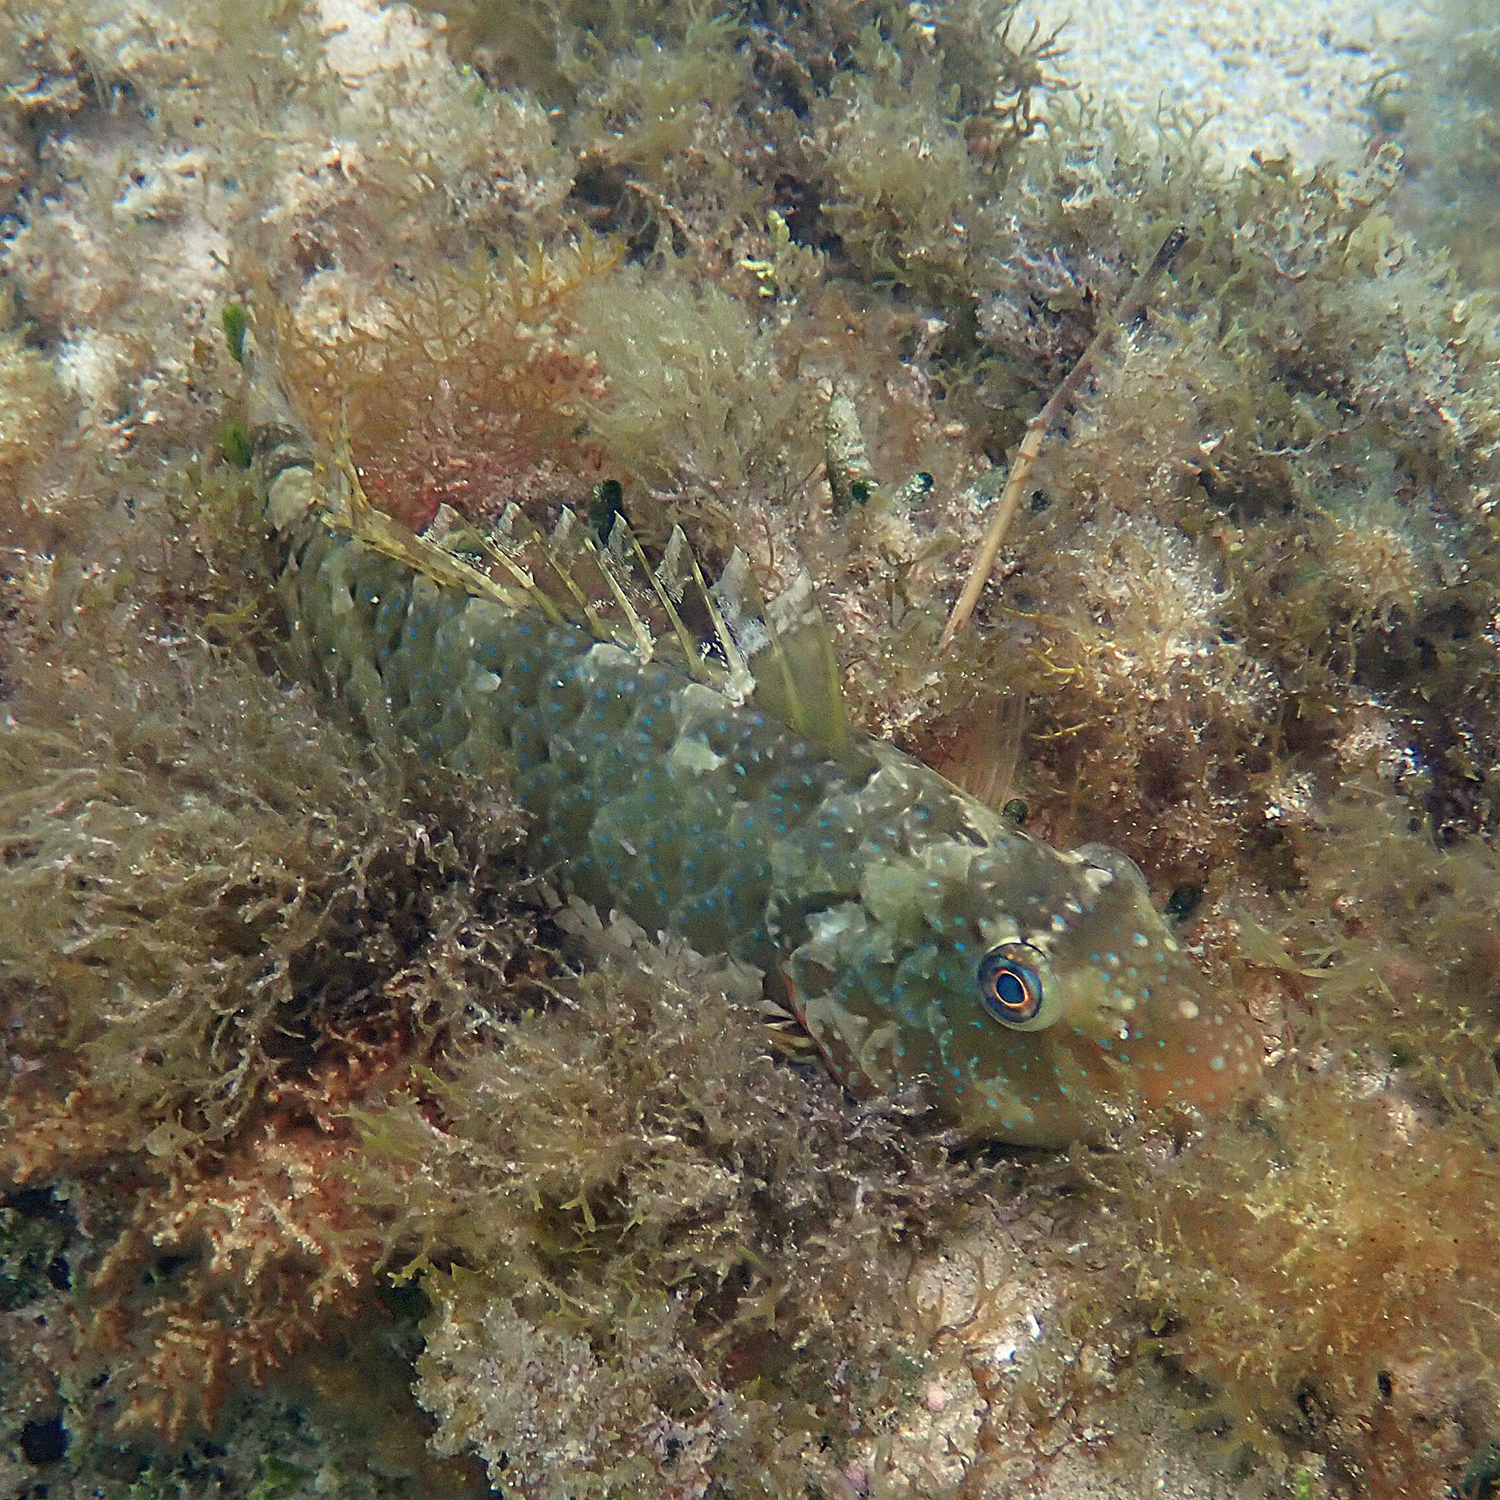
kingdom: Animalia
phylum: Chordata
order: Perciformes
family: Scaridae
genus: Leptoscarus
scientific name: Leptoscarus vaigiensis
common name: Marbled parrotfish
